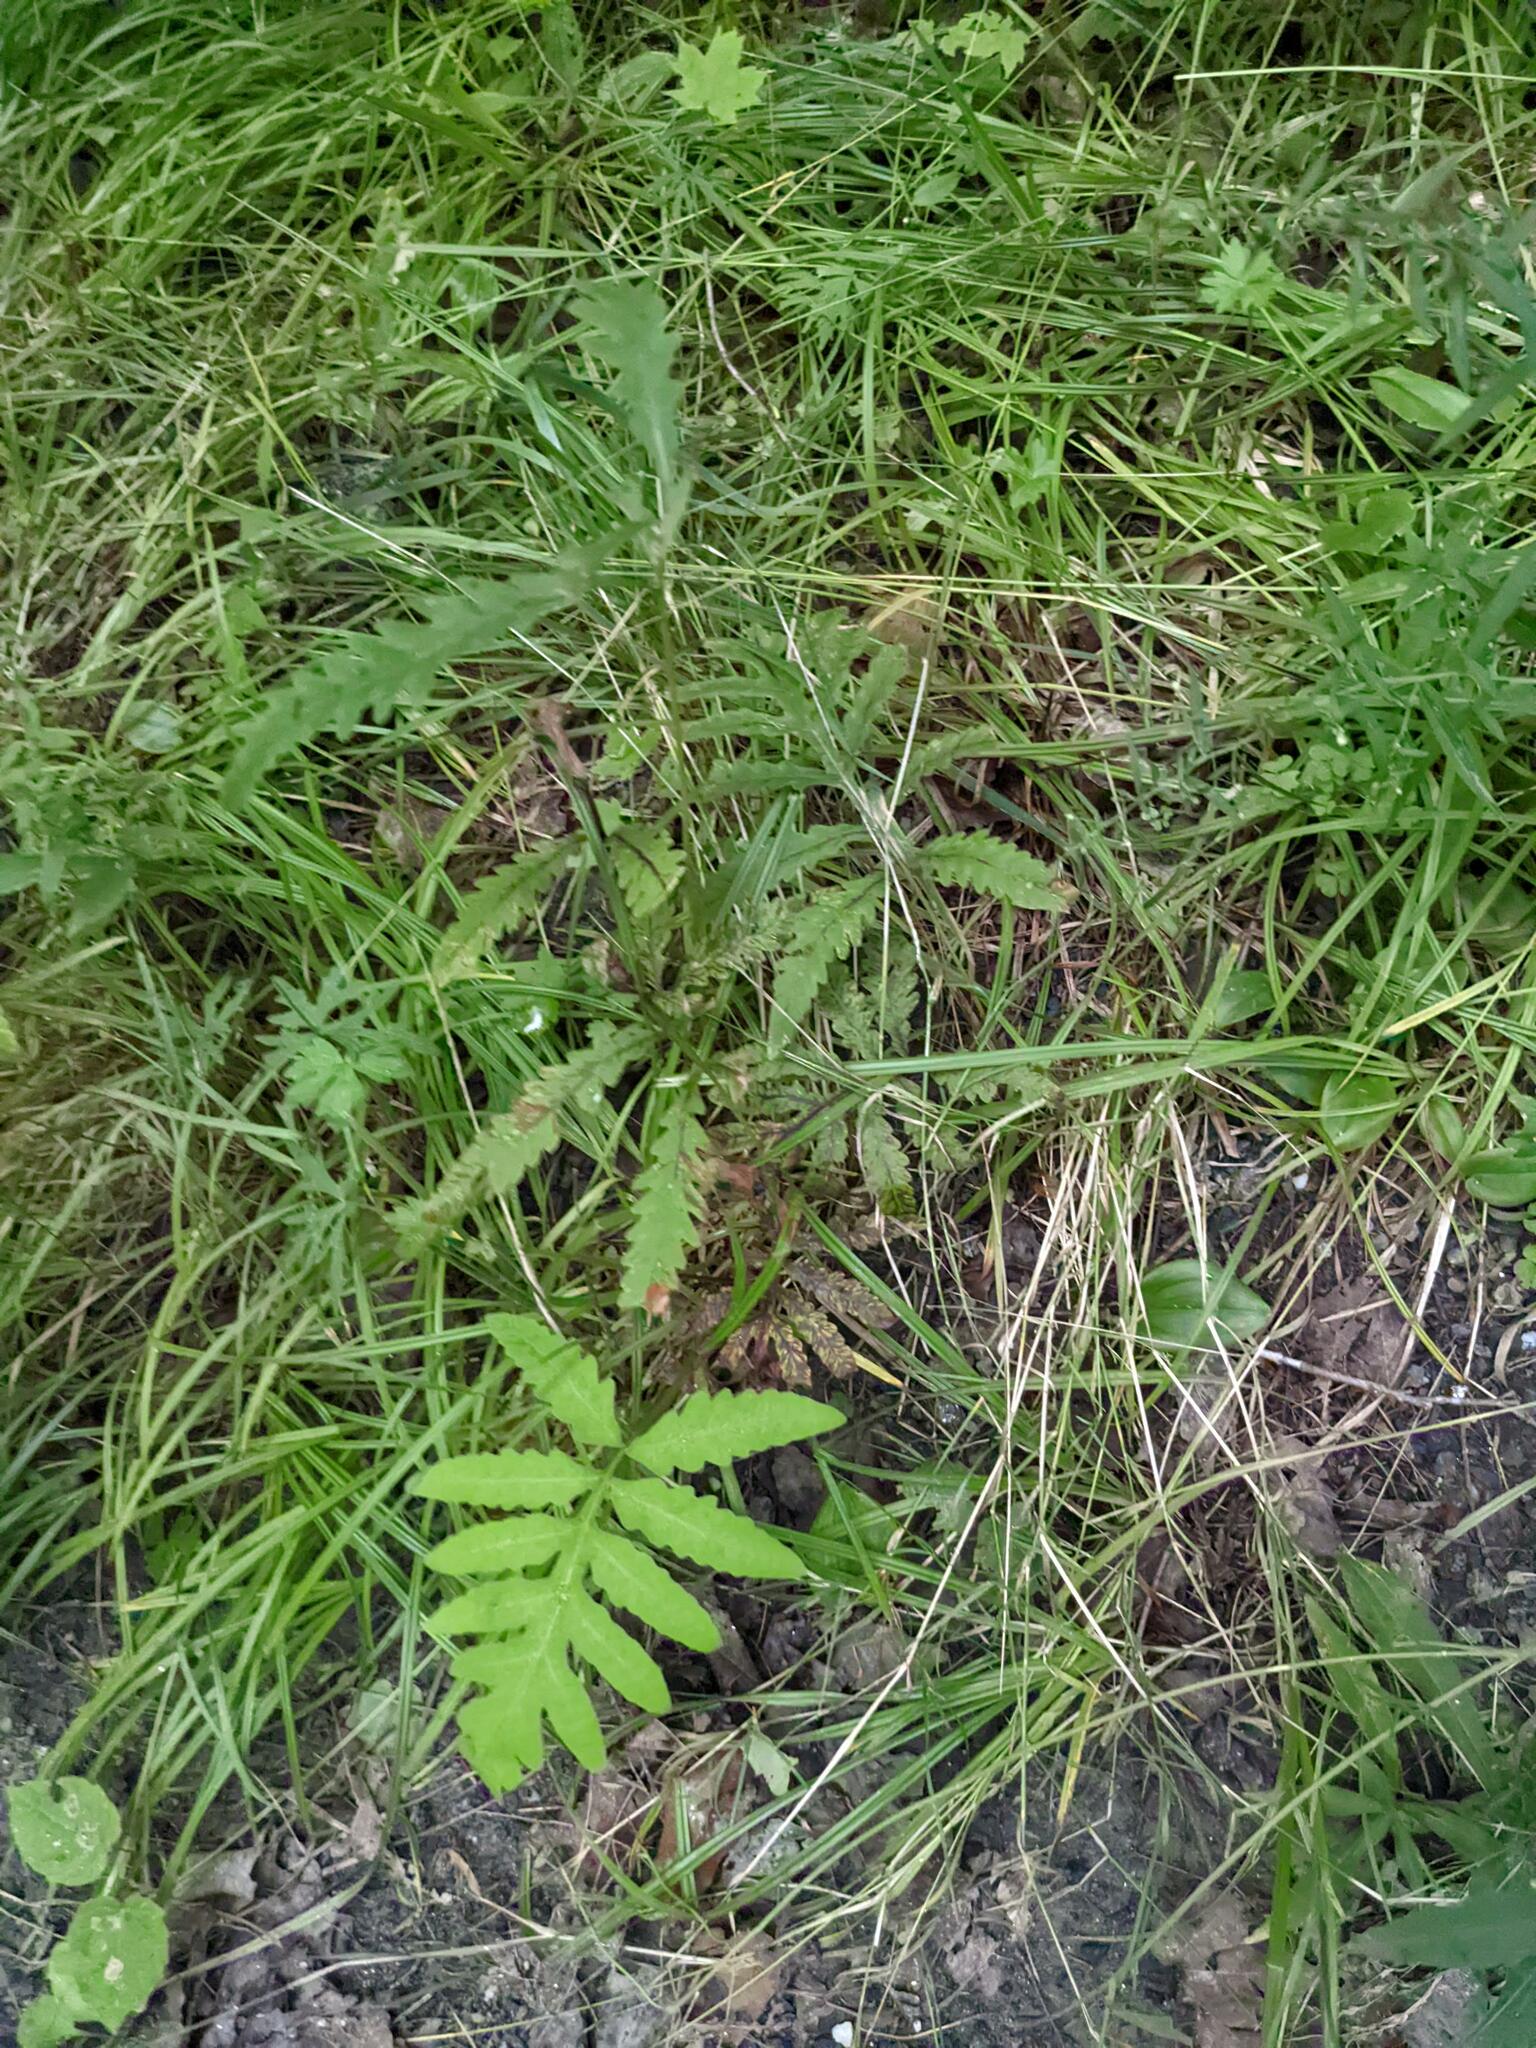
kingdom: Plantae
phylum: Tracheophyta
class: Polypodiopsida
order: Polypodiales
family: Onocleaceae
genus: Onoclea
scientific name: Onoclea sensibilis
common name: Sensitive fern
